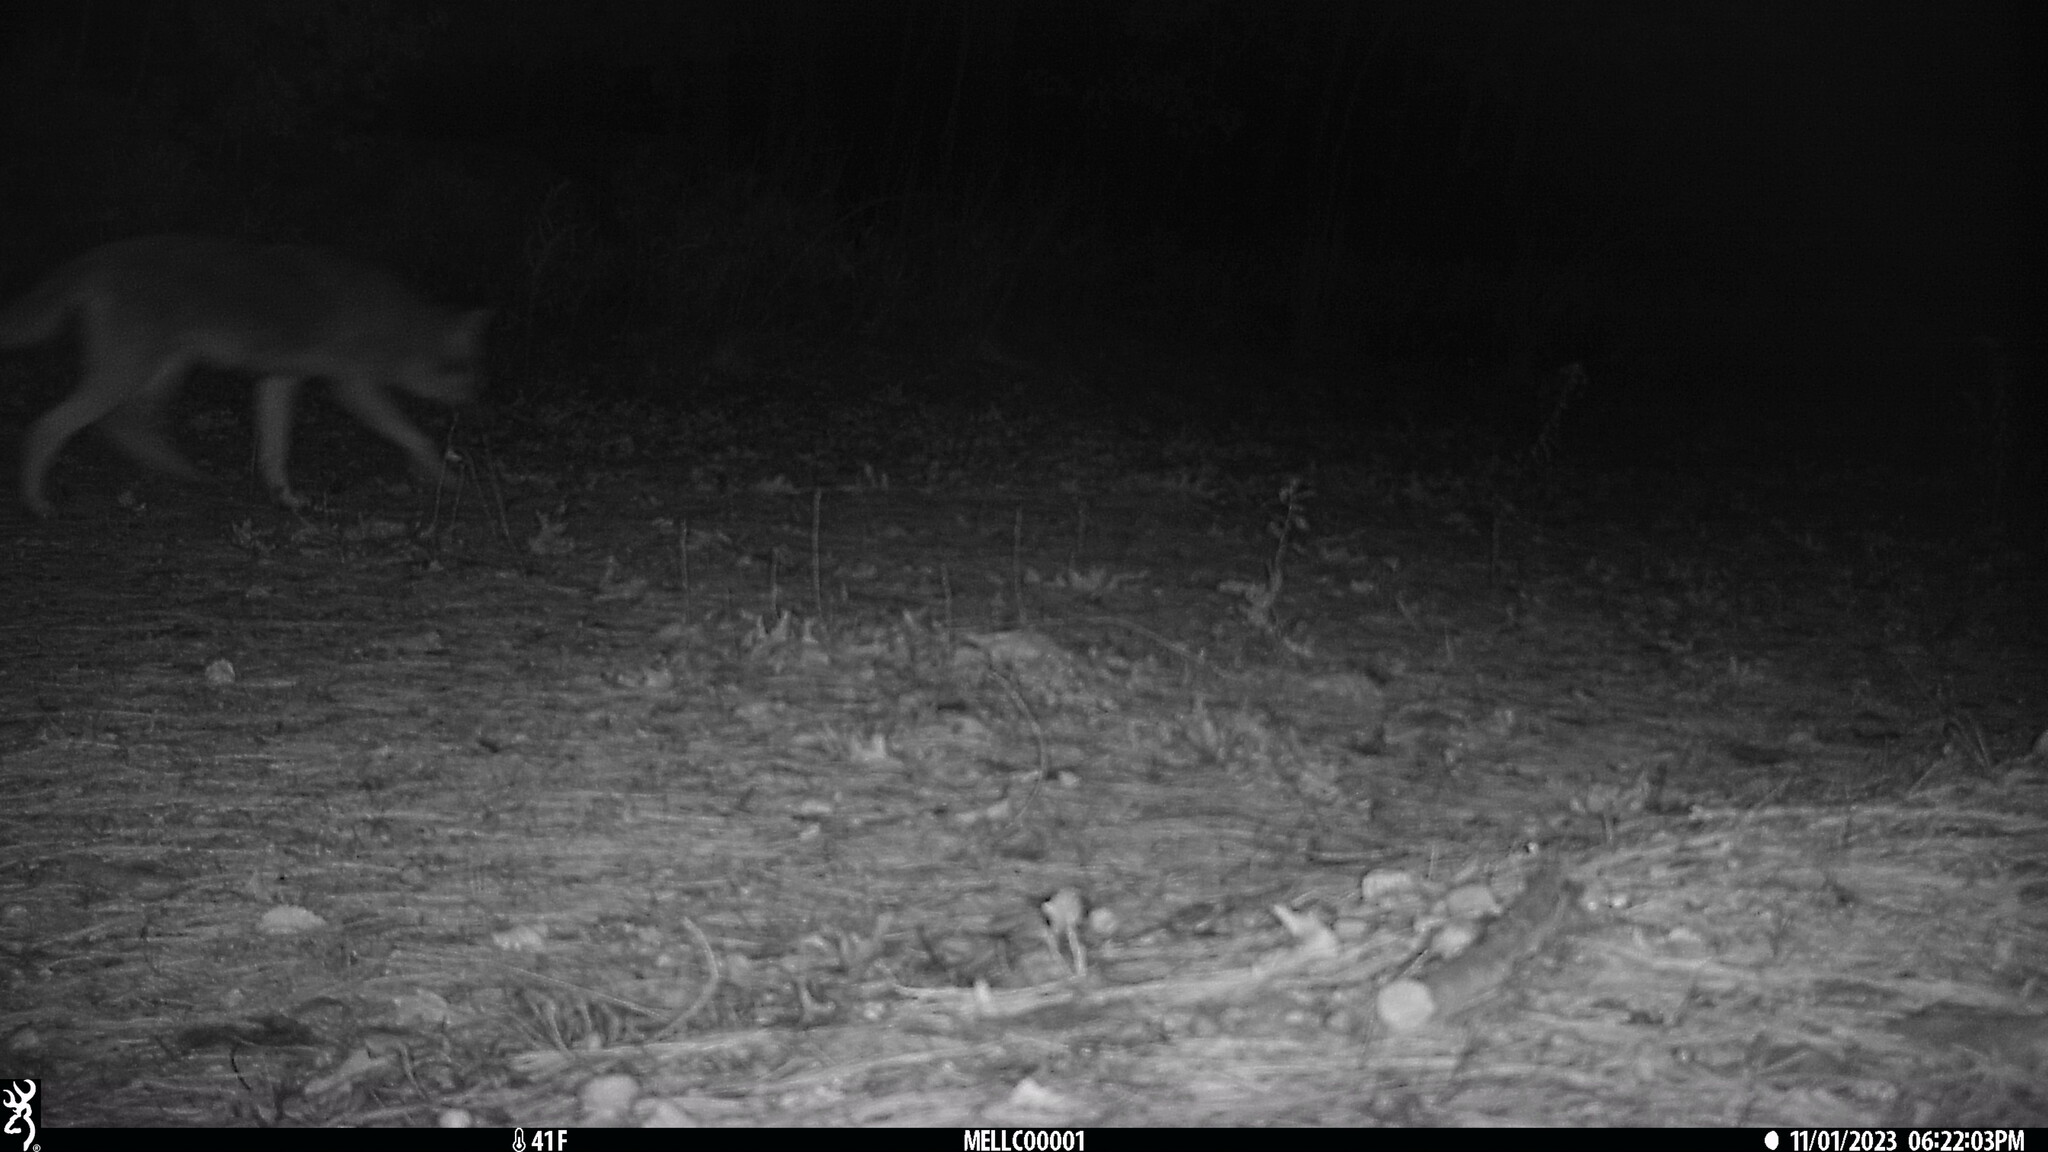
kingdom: Animalia
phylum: Chordata
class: Mammalia
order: Carnivora
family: Canidae
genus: Canis
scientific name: Canis latrans
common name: Coyote
